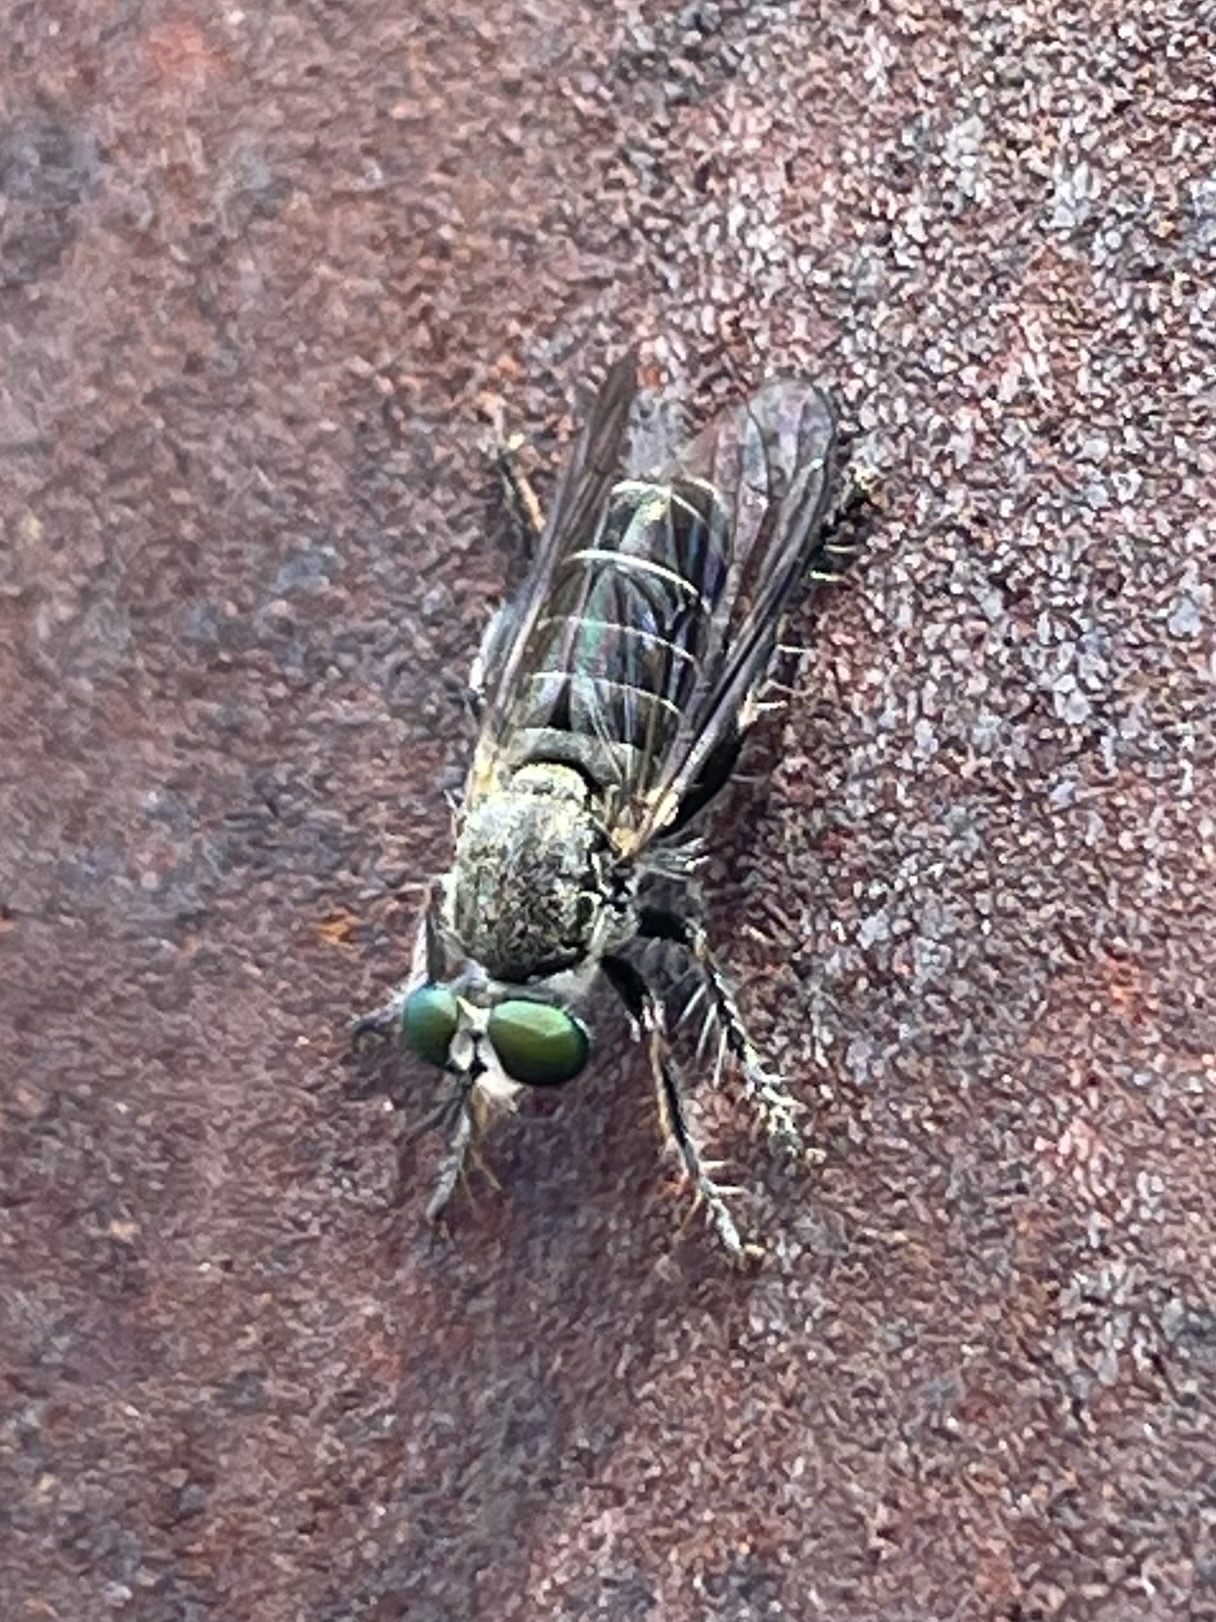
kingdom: Animalia
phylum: Arthropoda
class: Insecta
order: Diptera
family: Asilidae
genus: Atomosia
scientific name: Atomosia melanopogon
